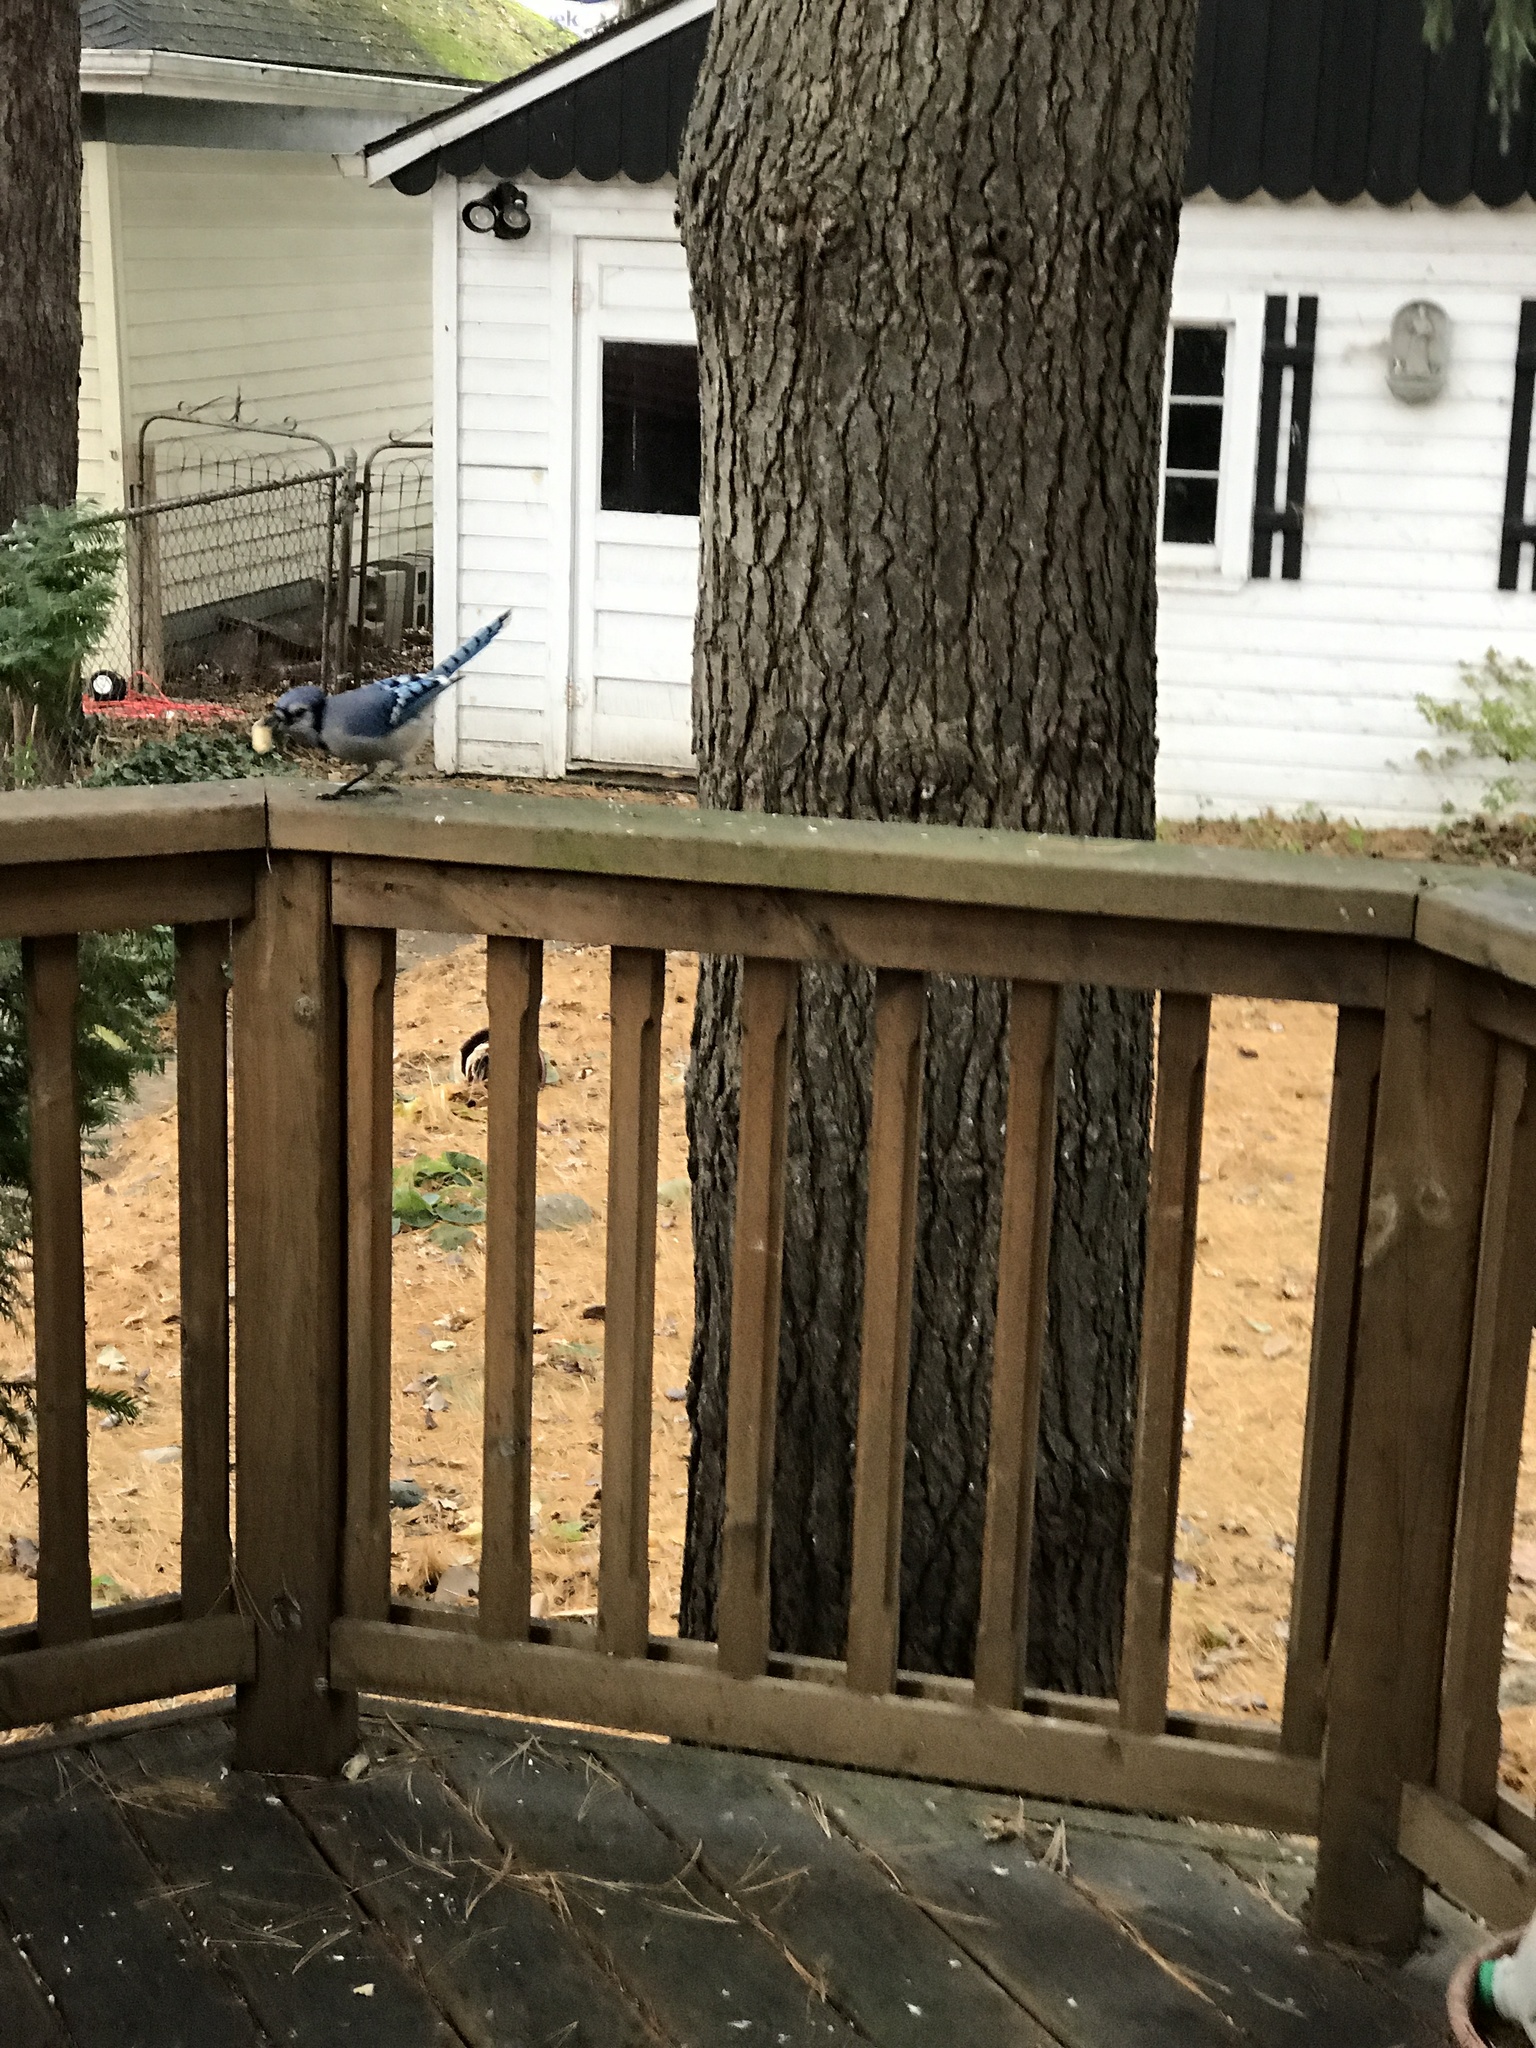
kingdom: Animalia
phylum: Chordata
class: Aves
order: Passeriformes
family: Corvidae
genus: Cyanocitta
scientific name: Cyanocitta cristata
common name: Blue jay
